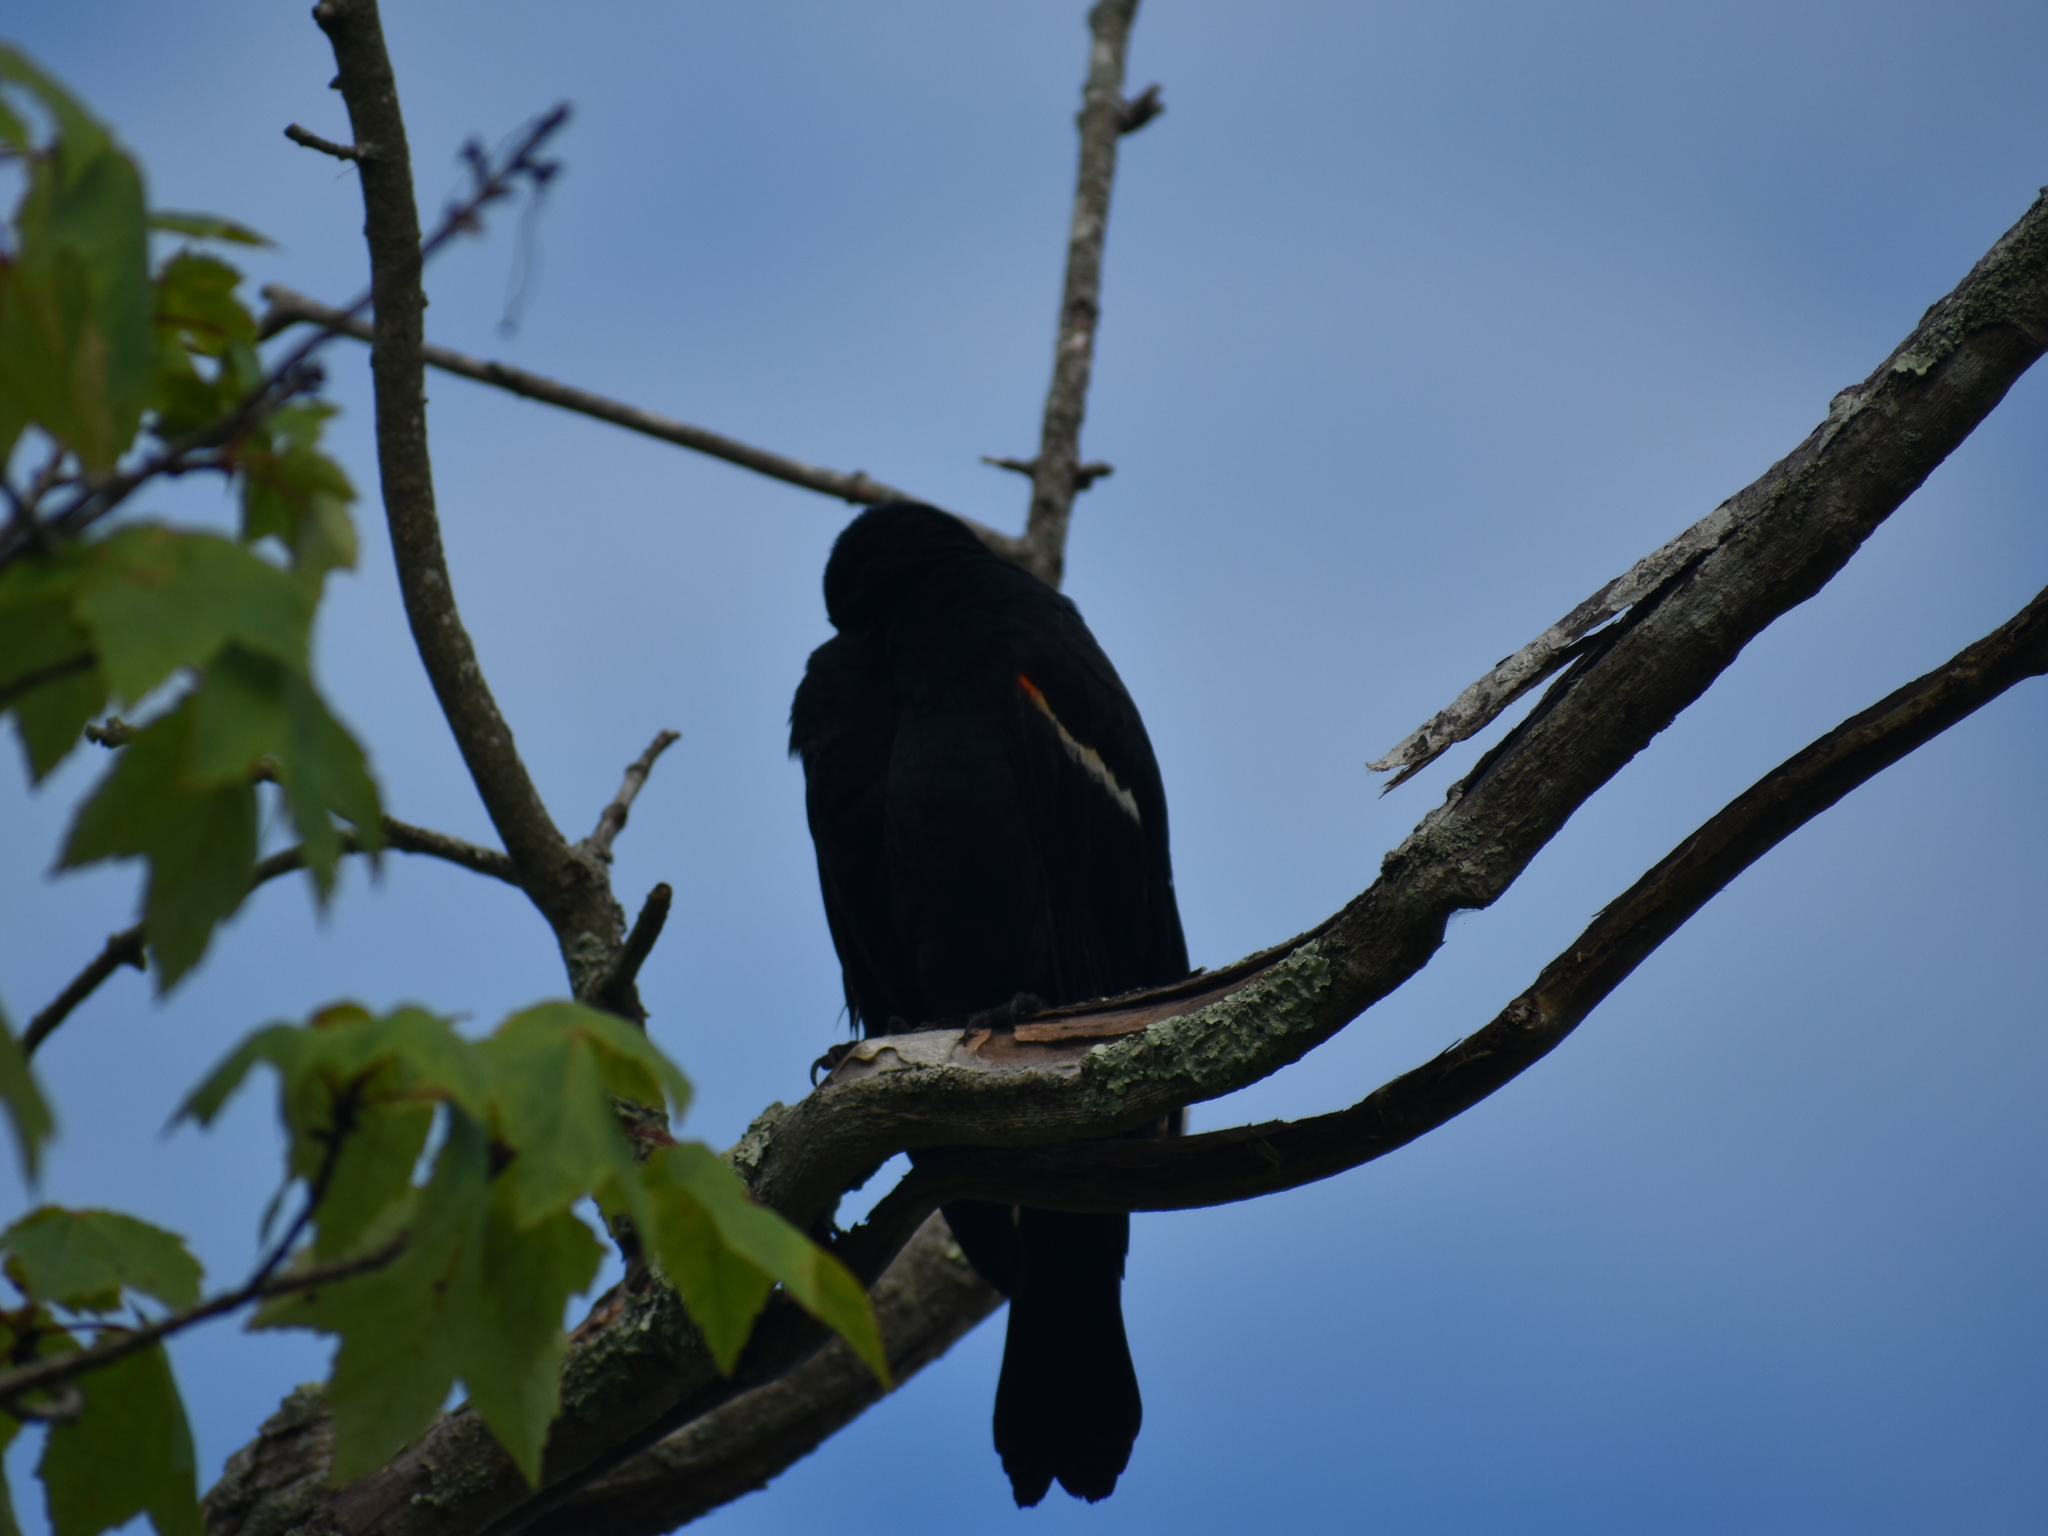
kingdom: Animalia
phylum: Chordata
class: Aves
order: Passeriformes
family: Icteridae
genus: Agelaius
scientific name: Agelaius phoeniceus
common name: Red-winged blackbird
